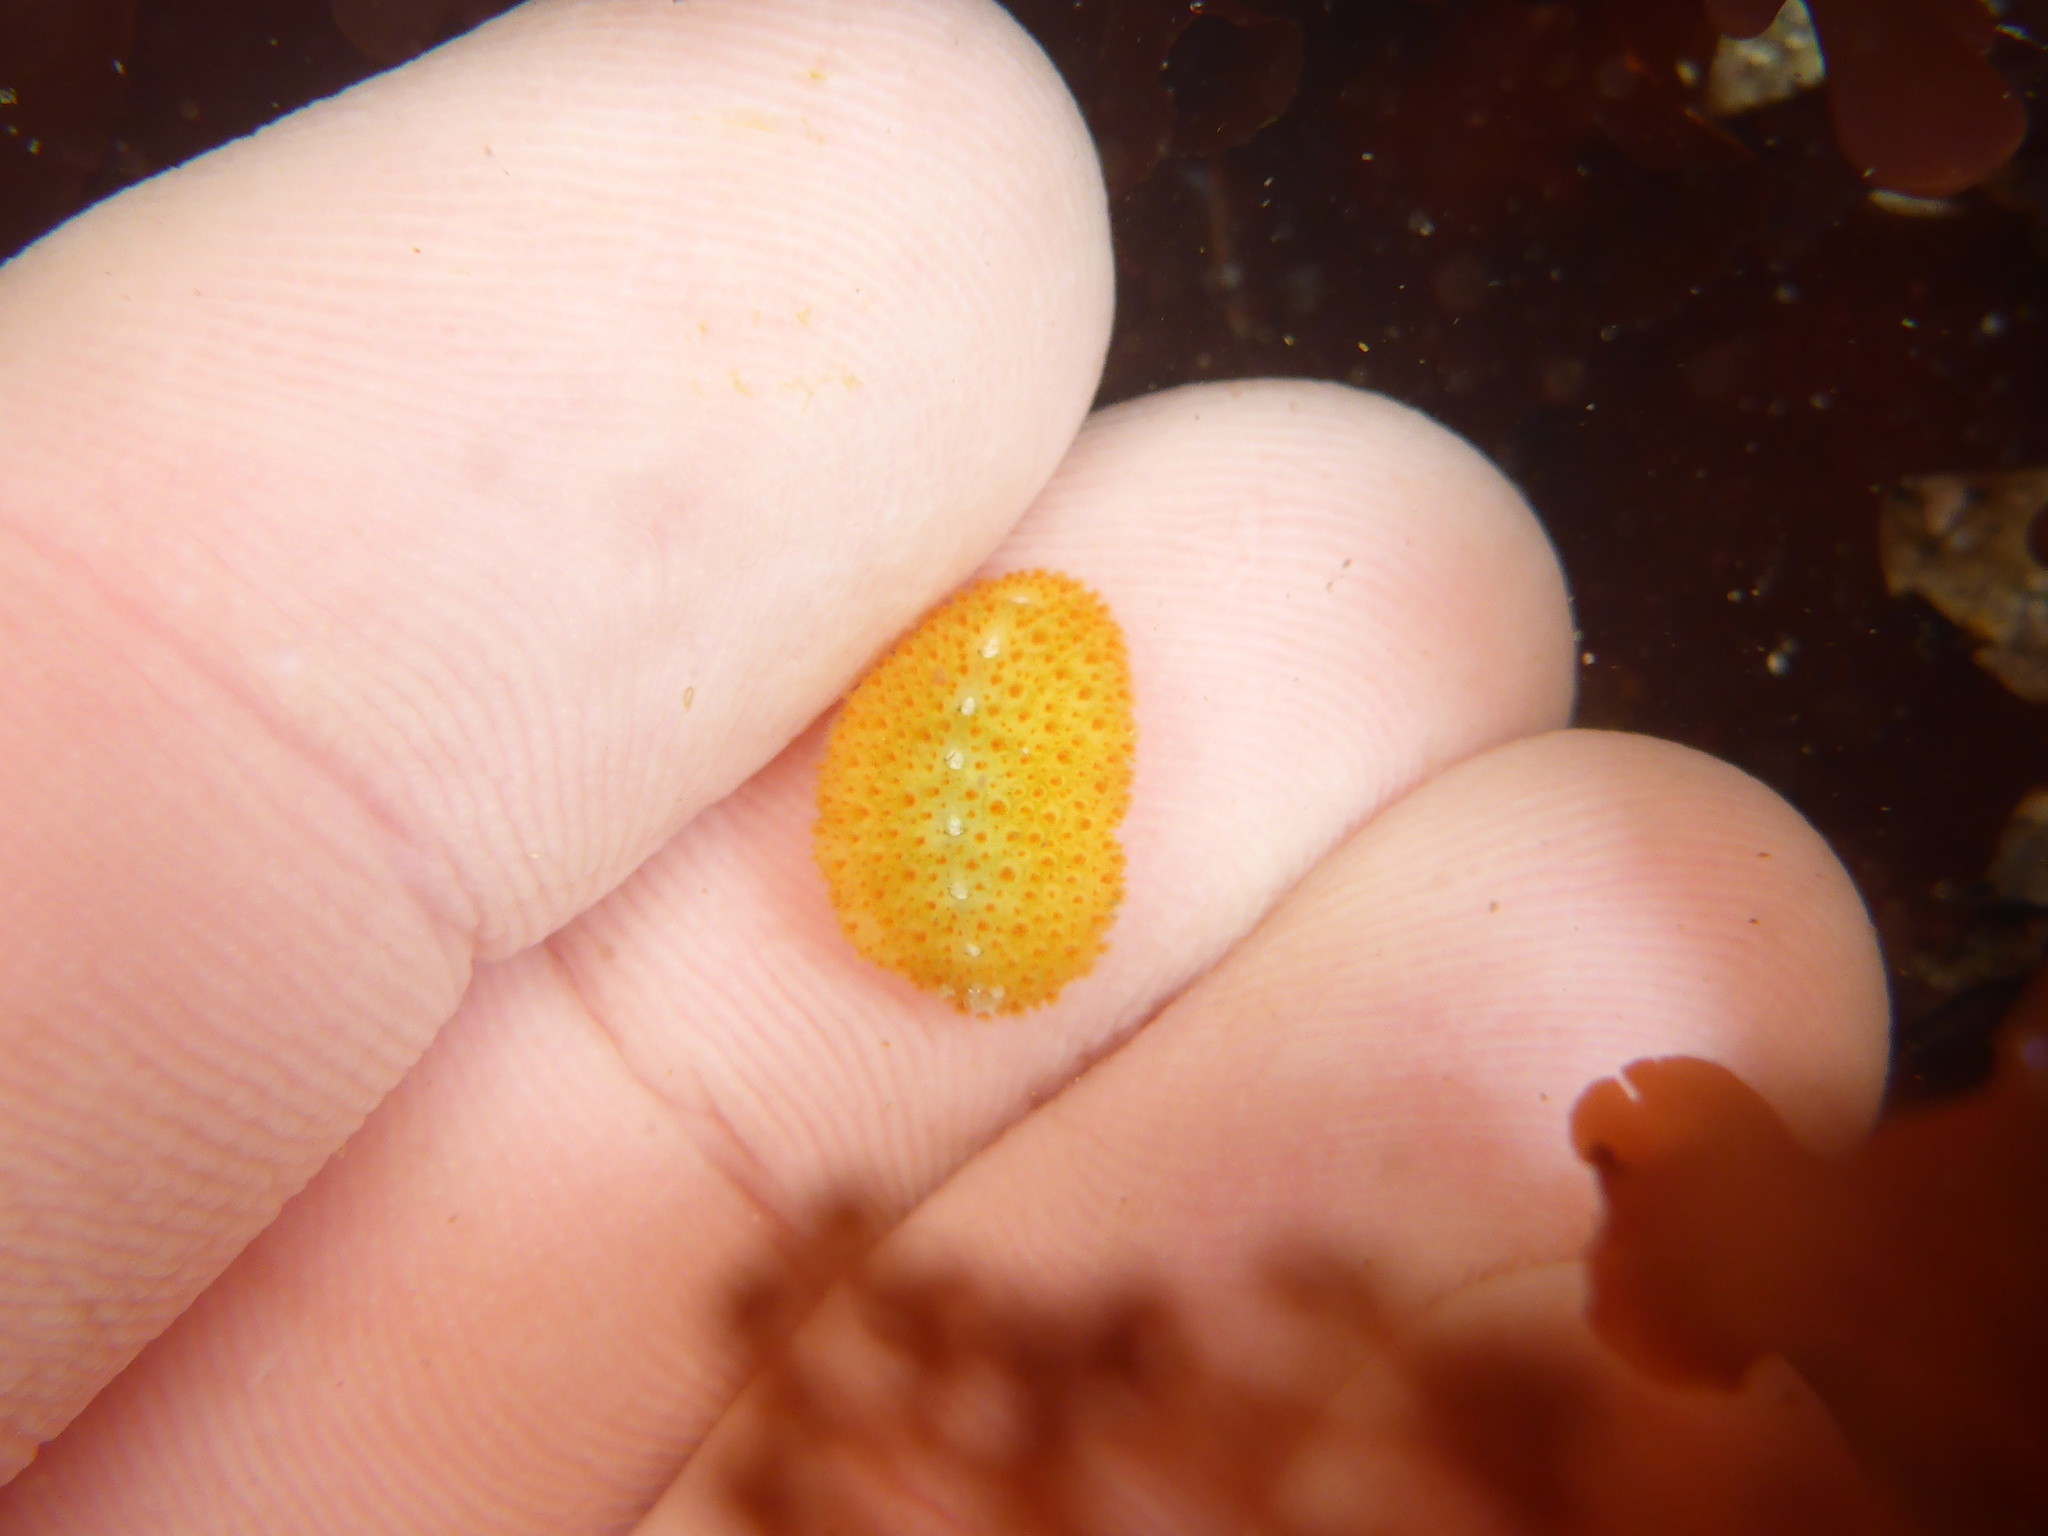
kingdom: Animalia
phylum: Mollusca
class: Polyplacophora
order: Chitonida
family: Acanthochitonidae
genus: Cryptochiton
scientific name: Cryptochiton stelleri
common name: Giant pacific chiton
